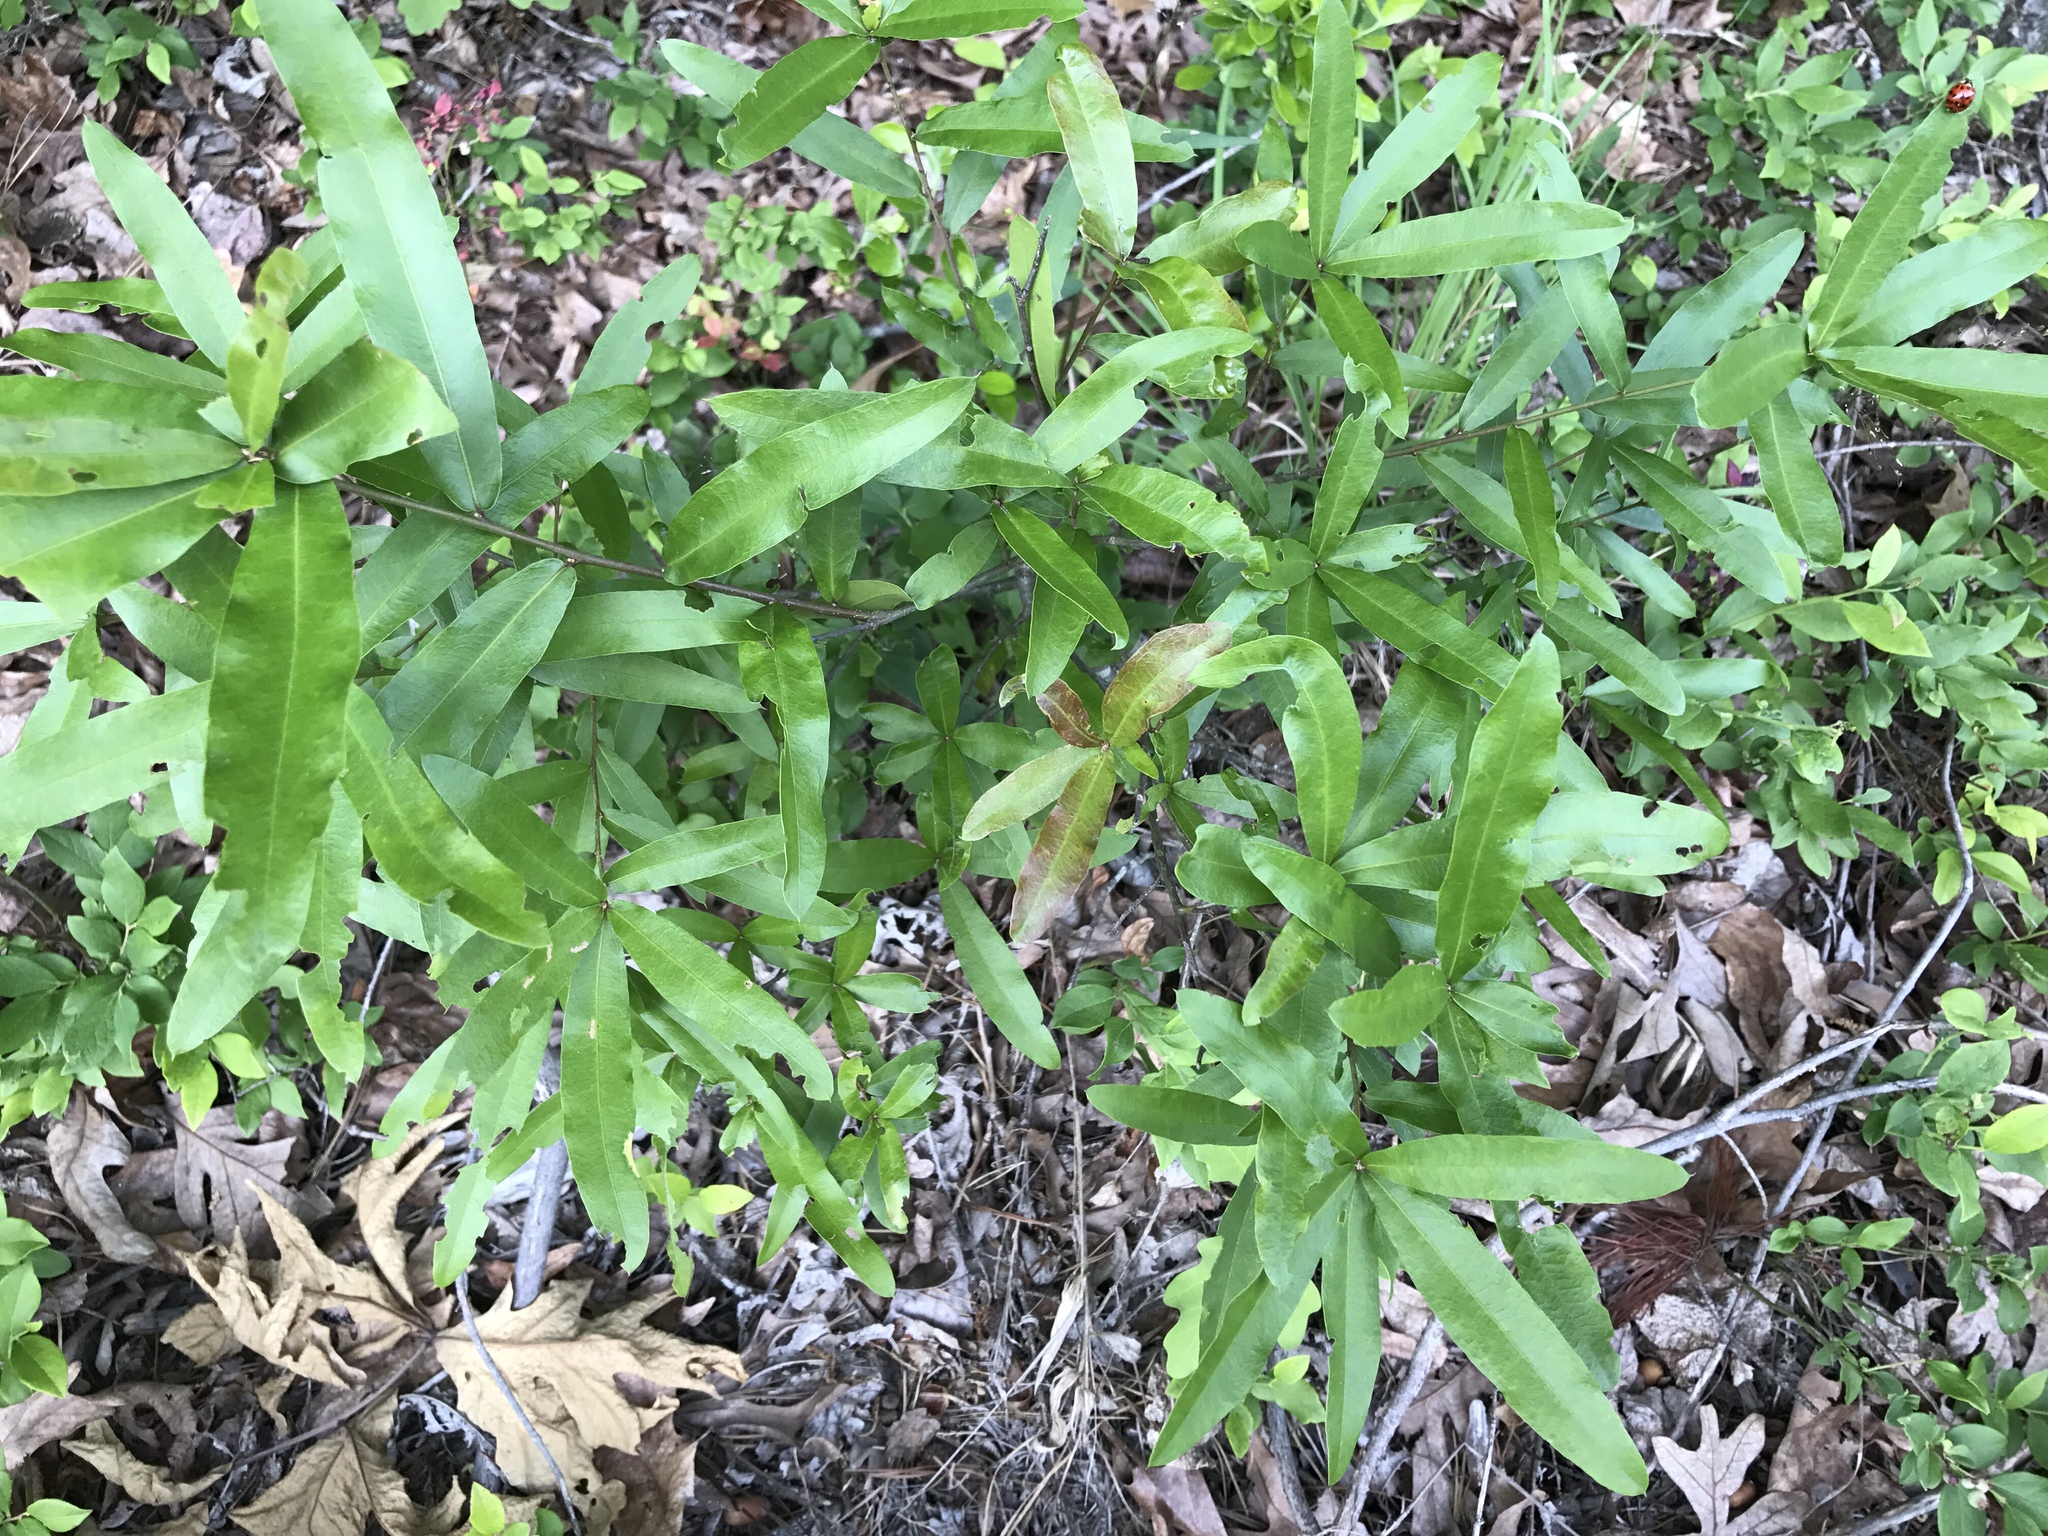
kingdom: Plantae
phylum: Tracheophyta
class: Magnoliopsida
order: Fagales
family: Fagaceae
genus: Quercus
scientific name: Quercus phellos
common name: Willow oak
